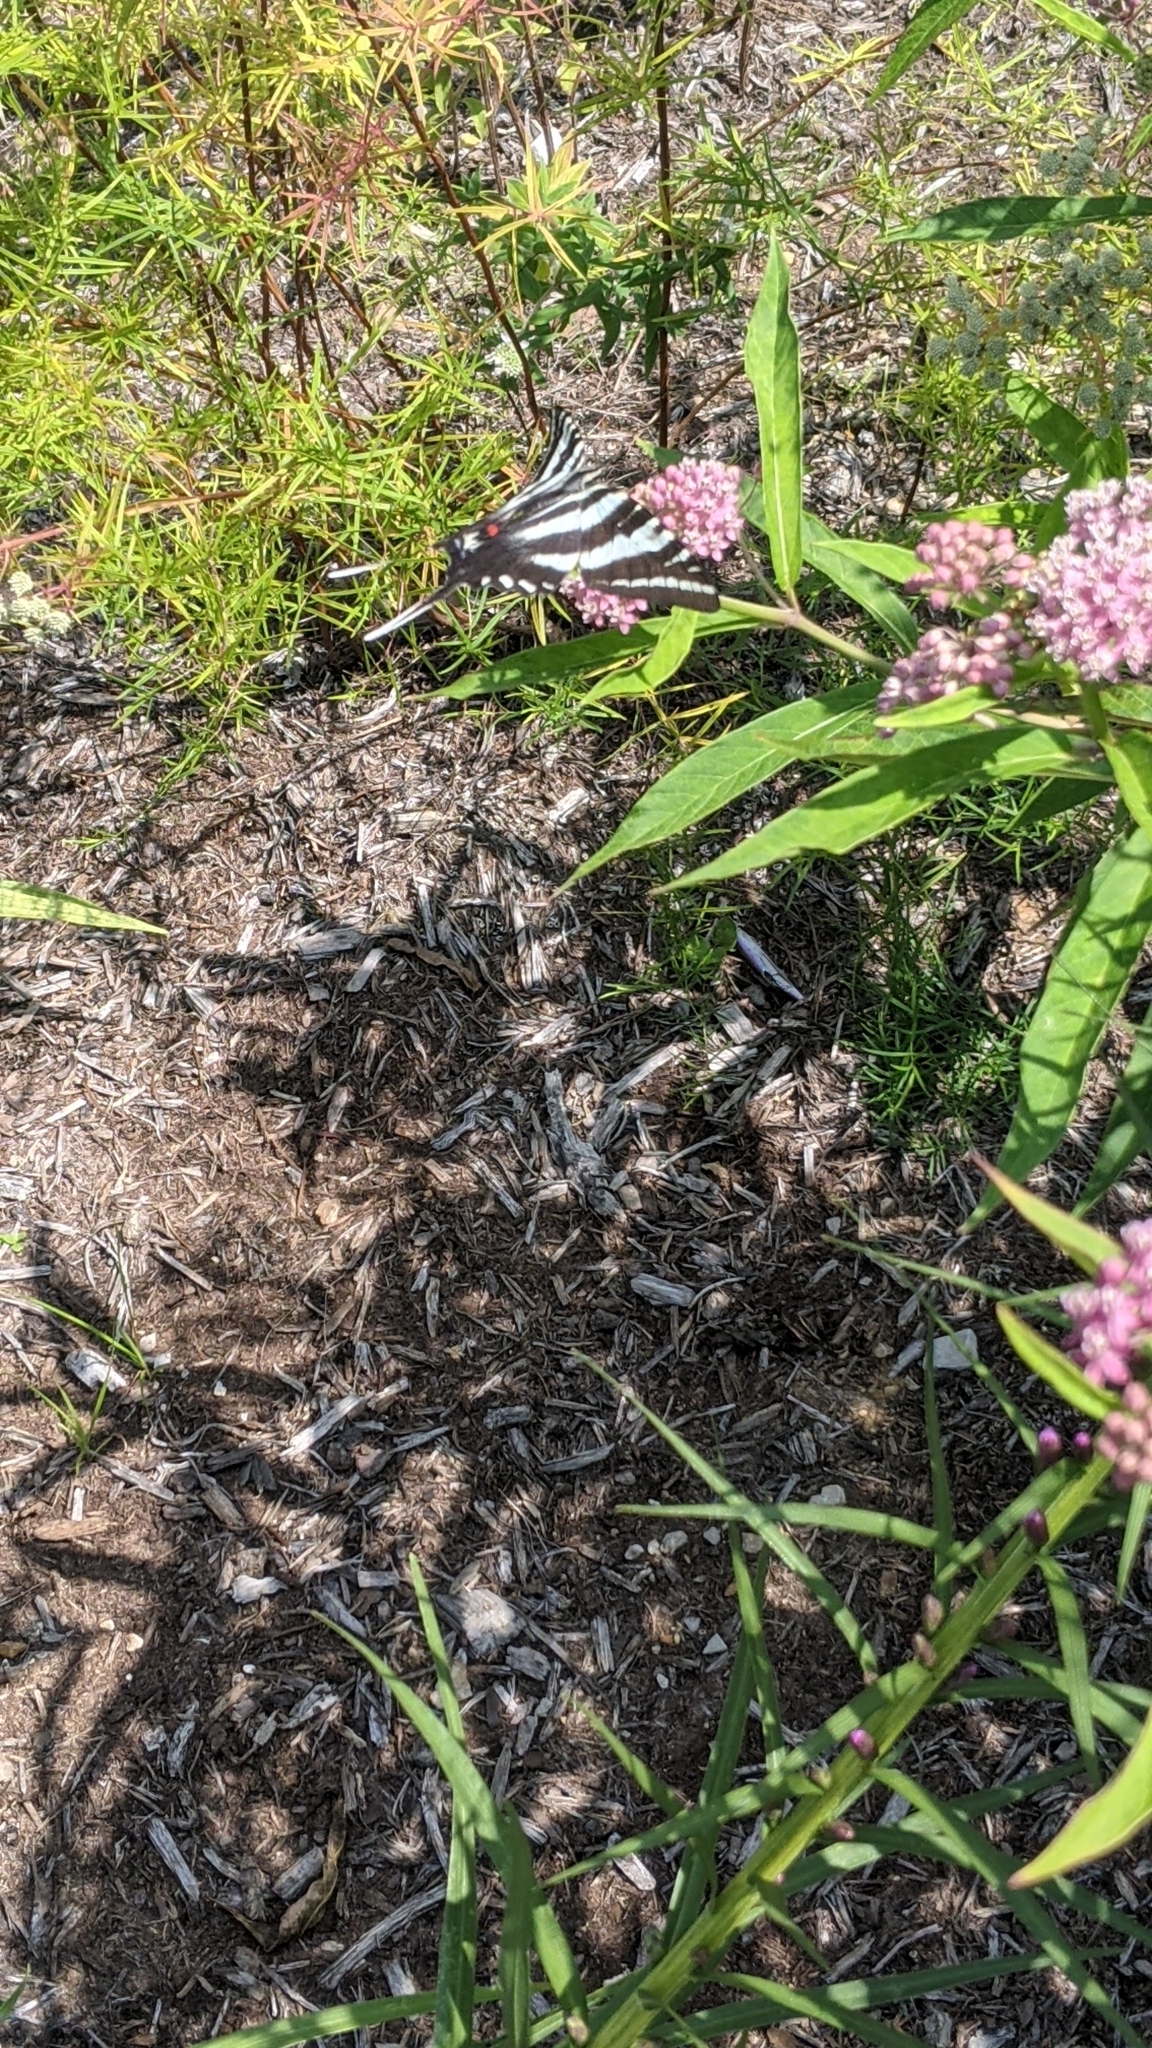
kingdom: Animalia
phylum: Arthropoda
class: Insecta
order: Lepidoptera
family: Papilionidae
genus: Protographium
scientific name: Protographium marcellus
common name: Zebra swallowtail
